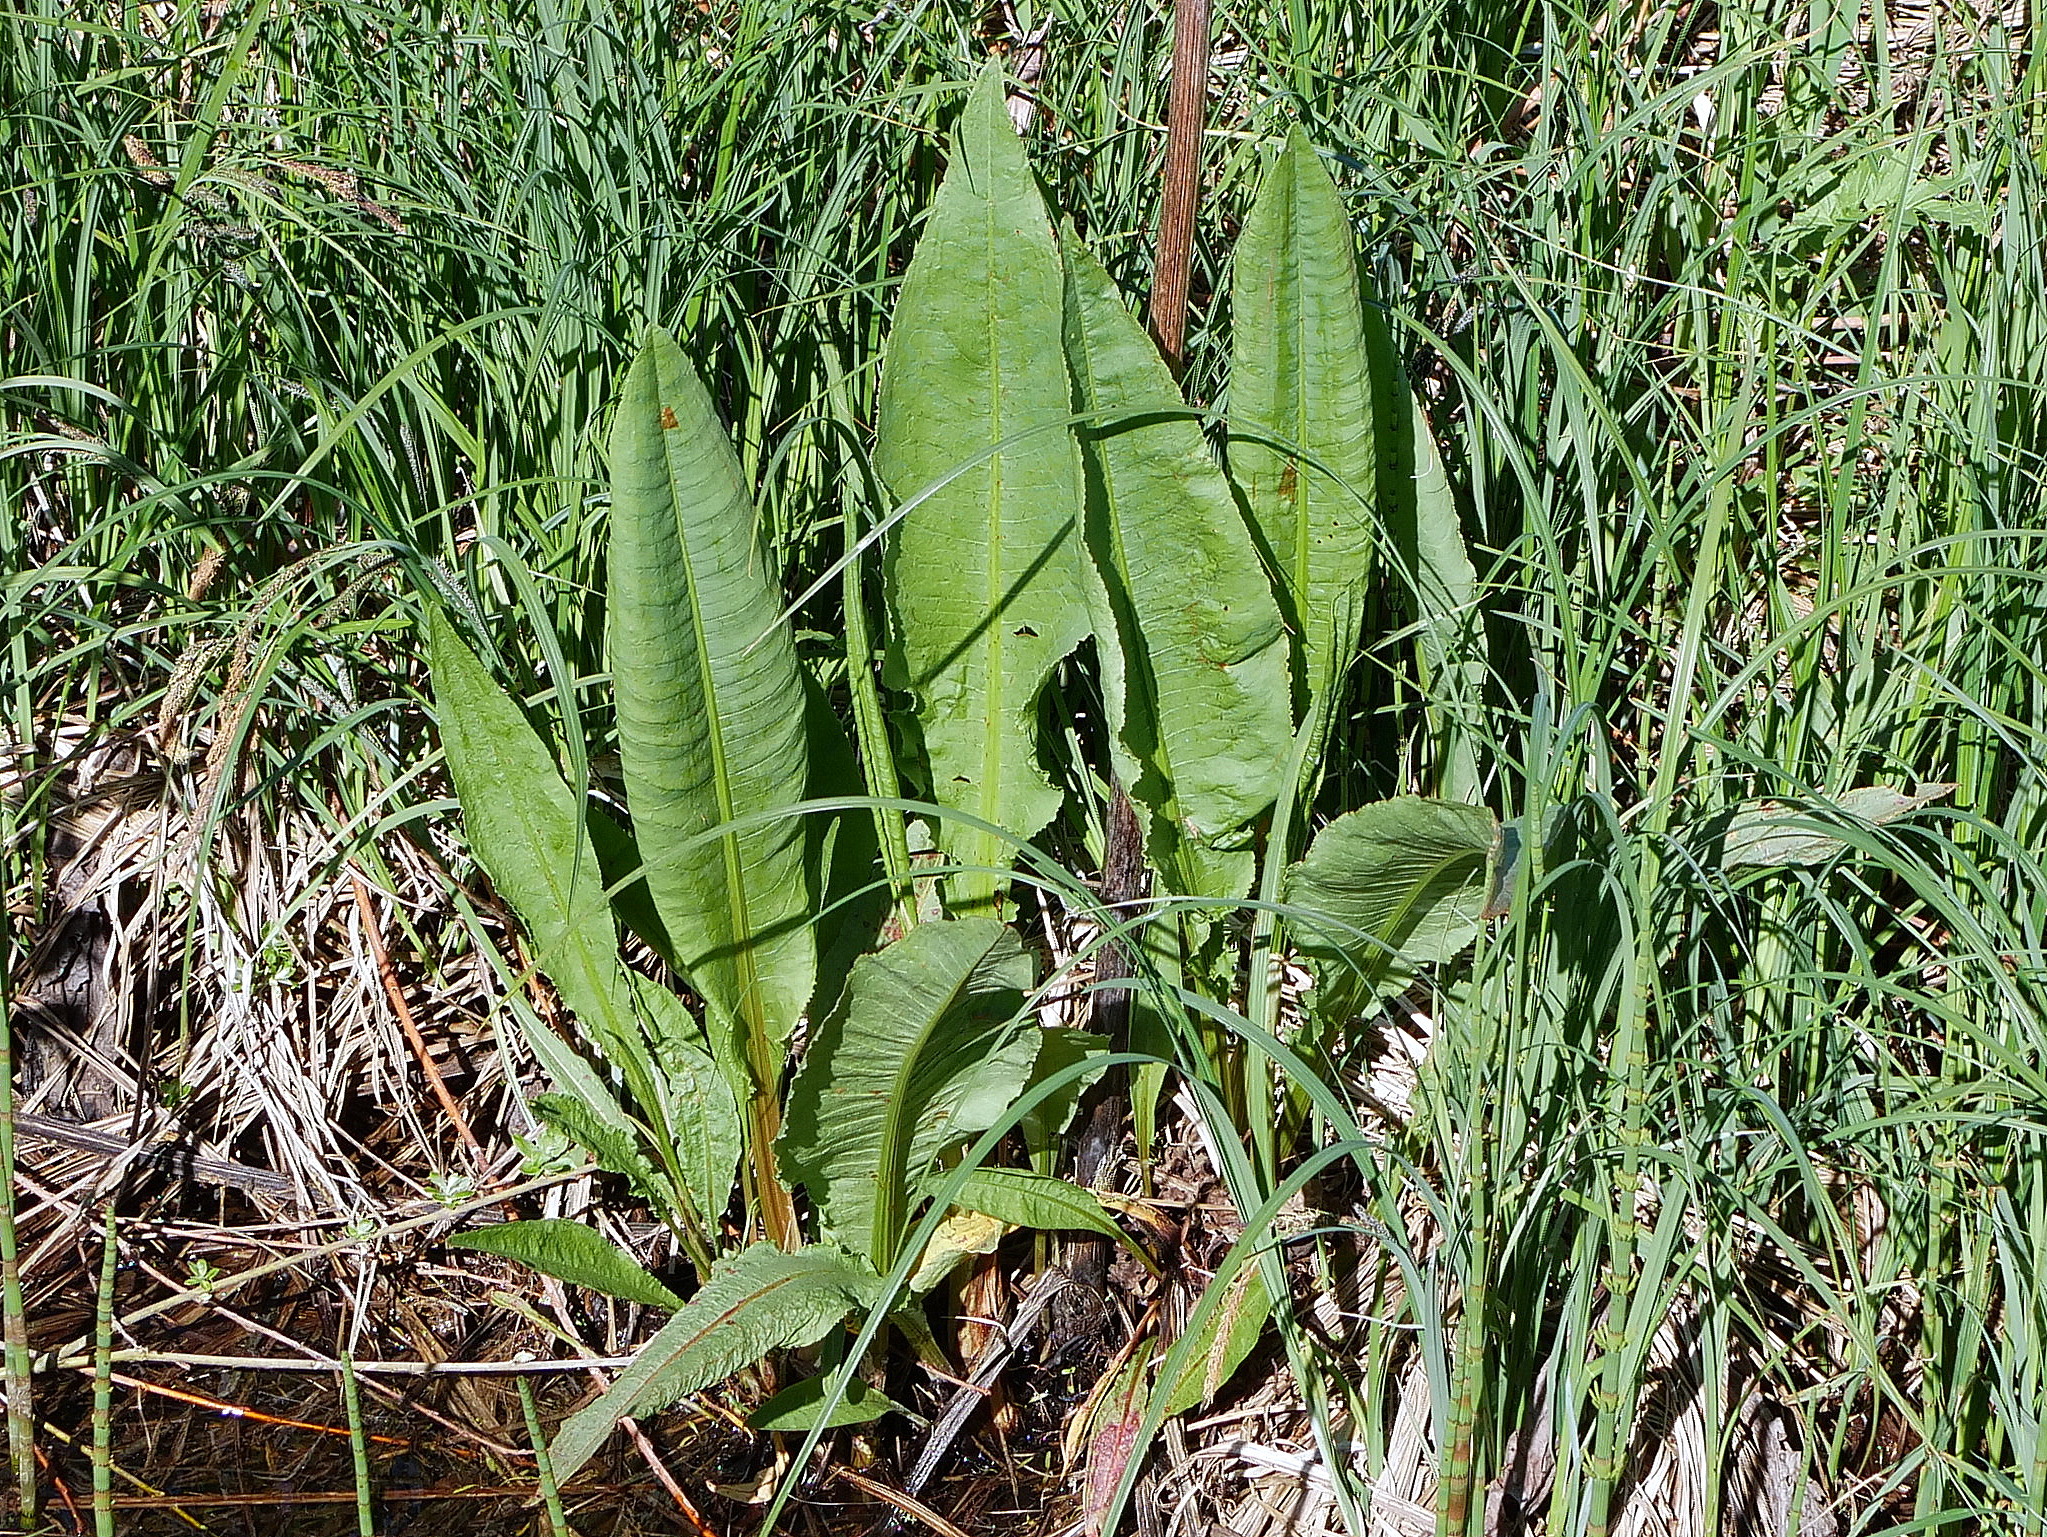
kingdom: Plantae
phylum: Tracheophyta
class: Magnoliopsida
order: Caryophyllales
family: Polygonaceae
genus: Rumex
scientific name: Rumex hydrolapathum
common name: Water dock
